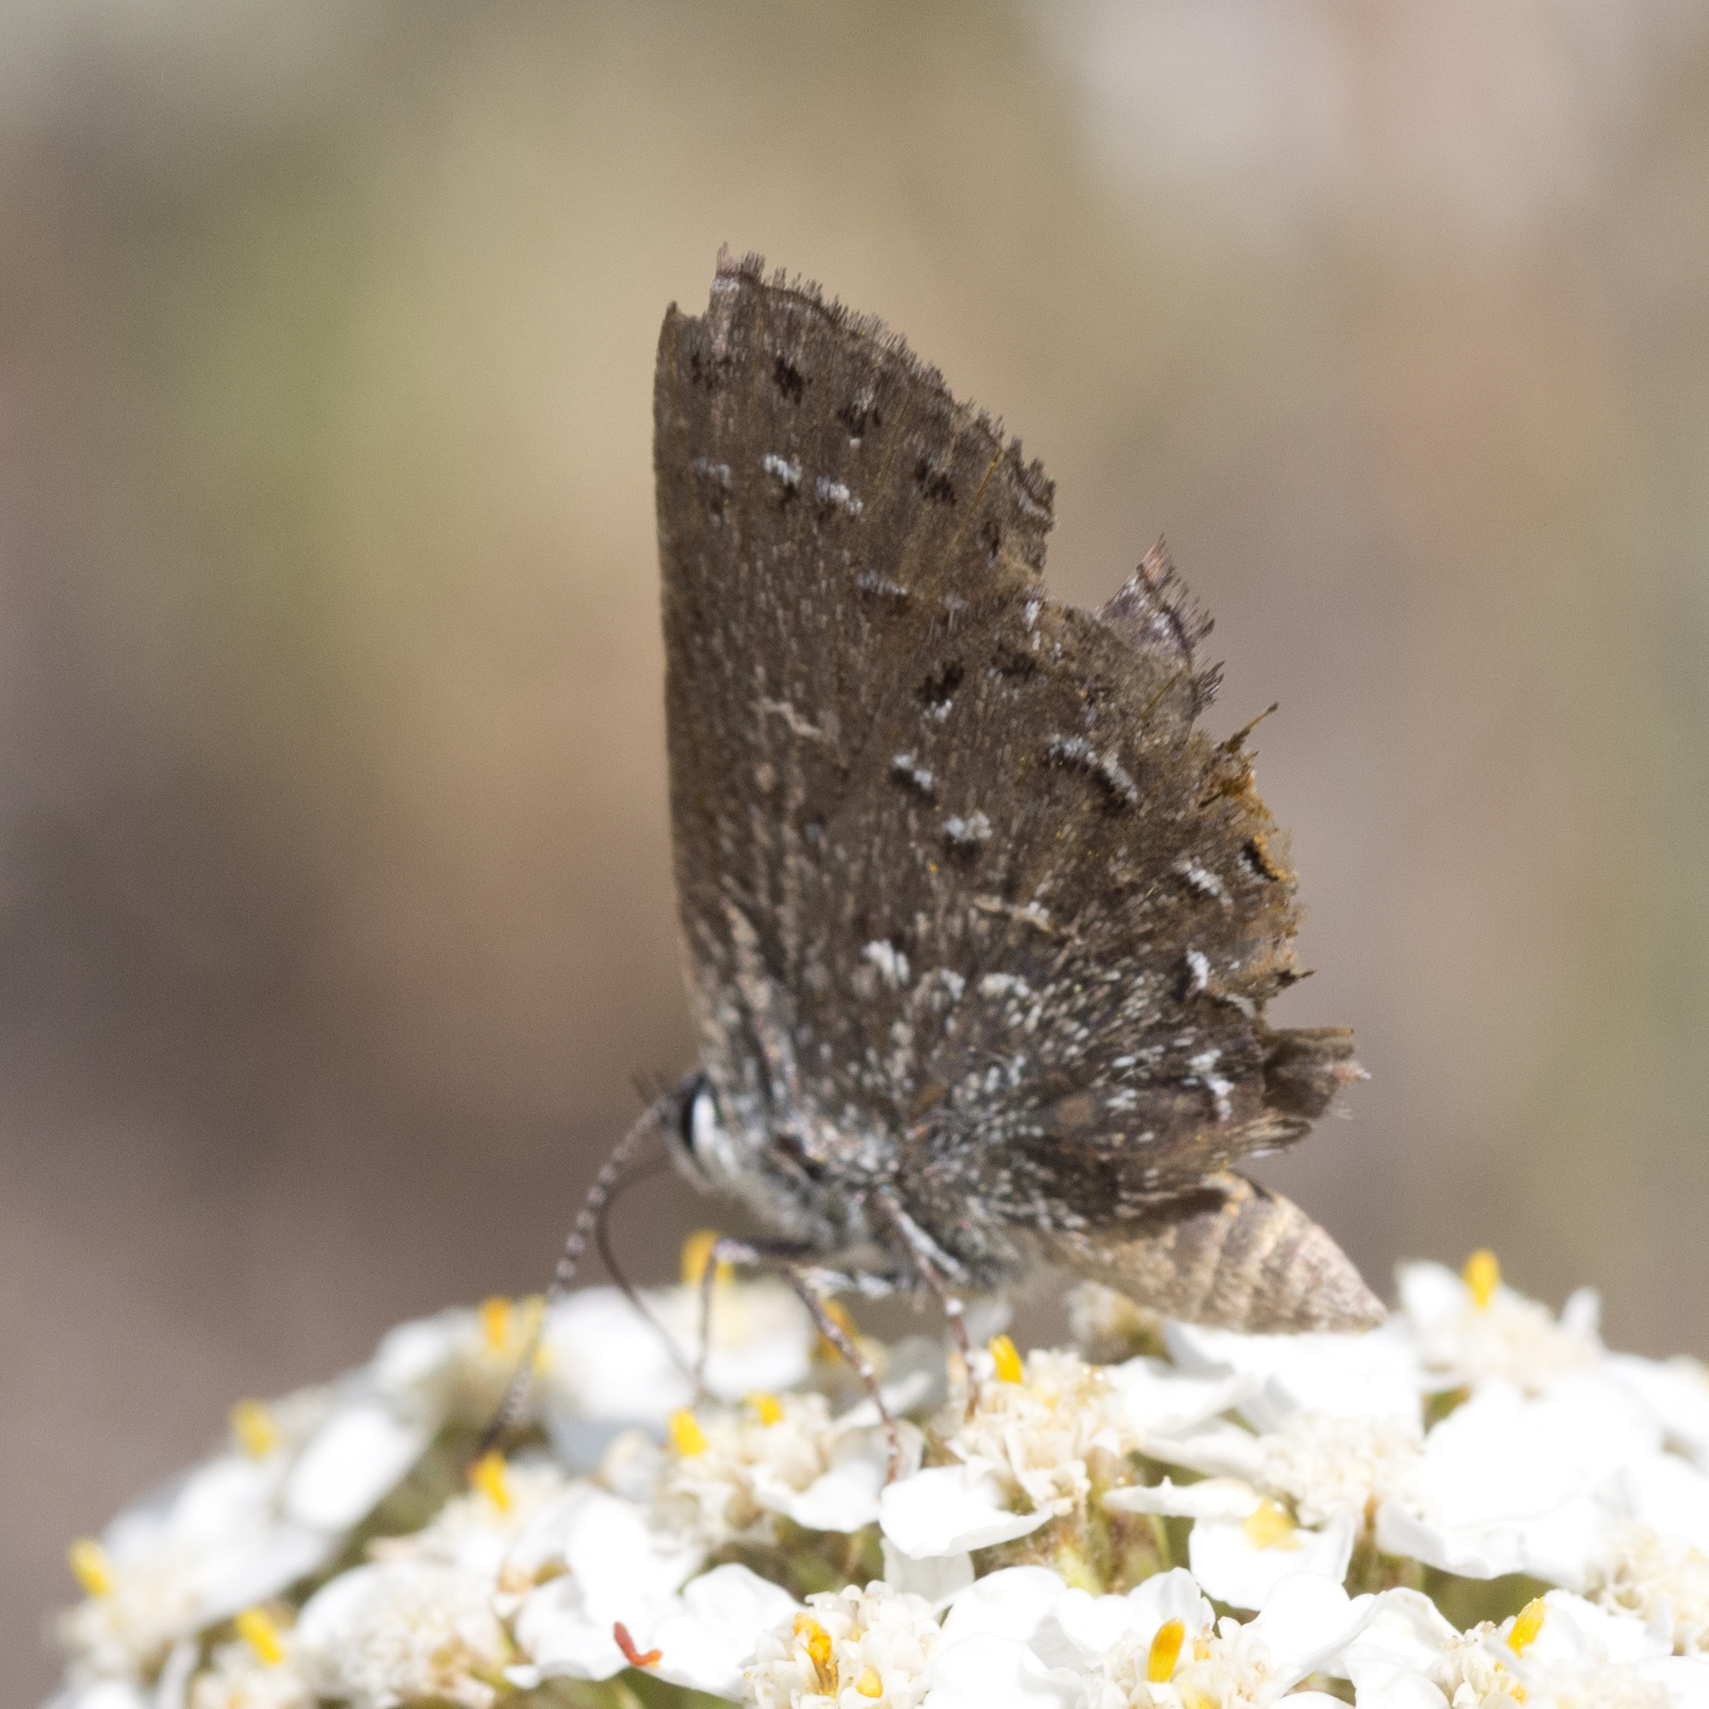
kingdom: Animalia
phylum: Arthropoda
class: Insecta
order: Lepidoptera
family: Lycaenidae
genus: Satyrium
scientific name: Satyrium behrii
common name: Behr's hairstreak
